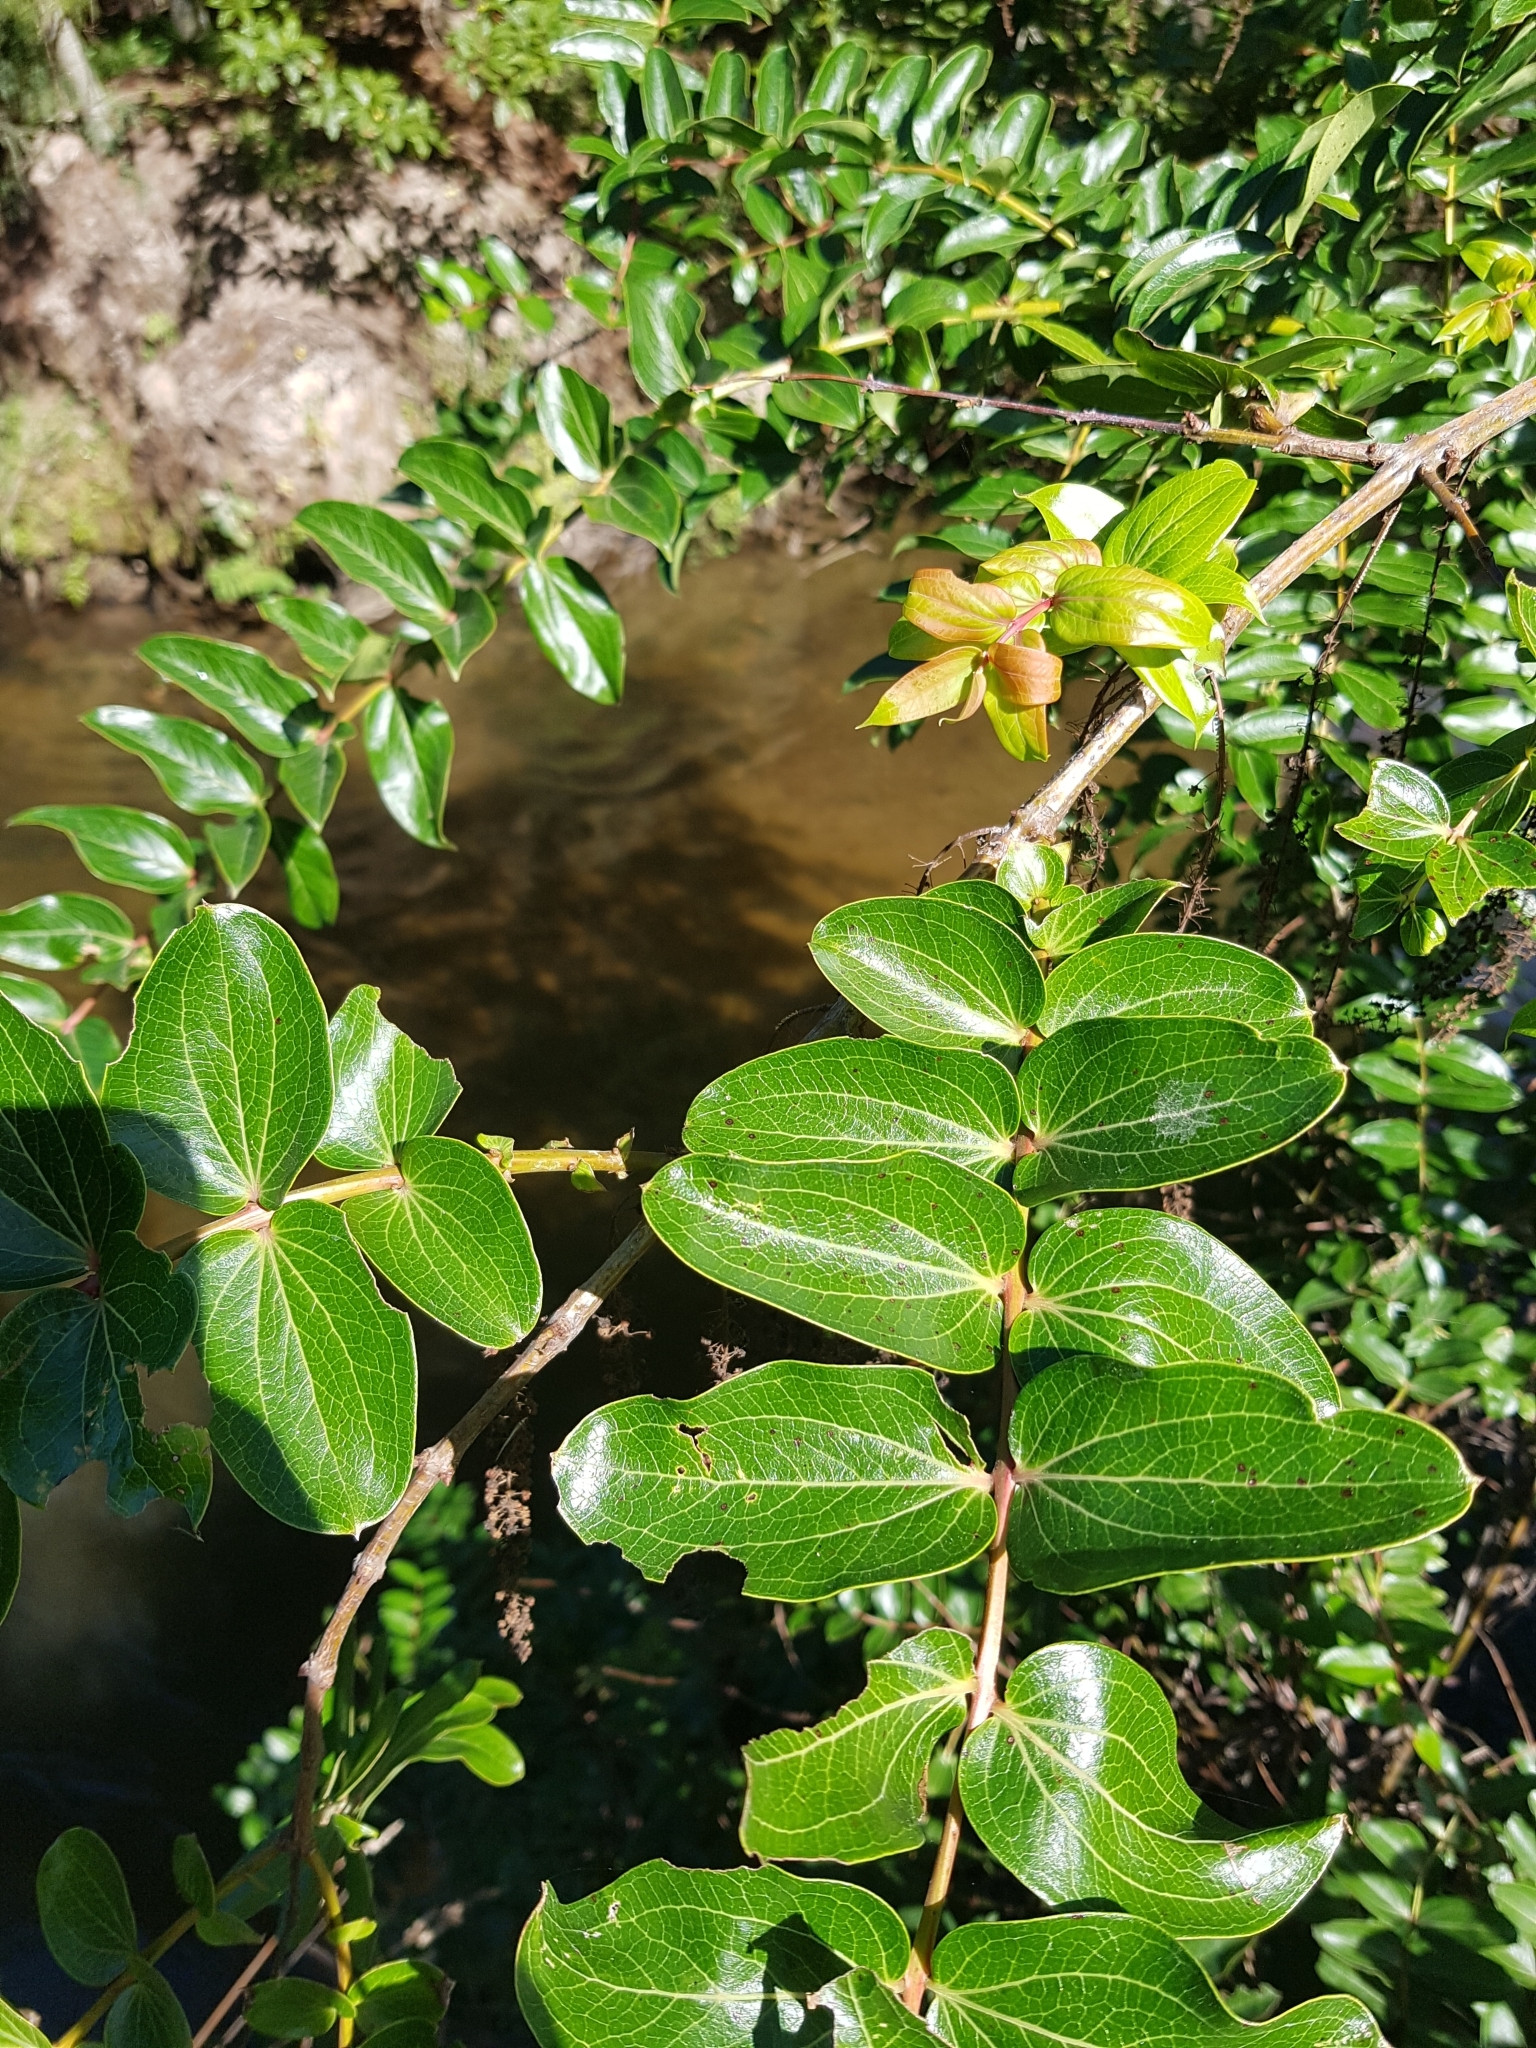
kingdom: Plantae
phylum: Tracheophyta
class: Magnoliopsida
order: Cucurbitales
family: Coriariaceae
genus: Coriaria
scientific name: Coriaria arborea
